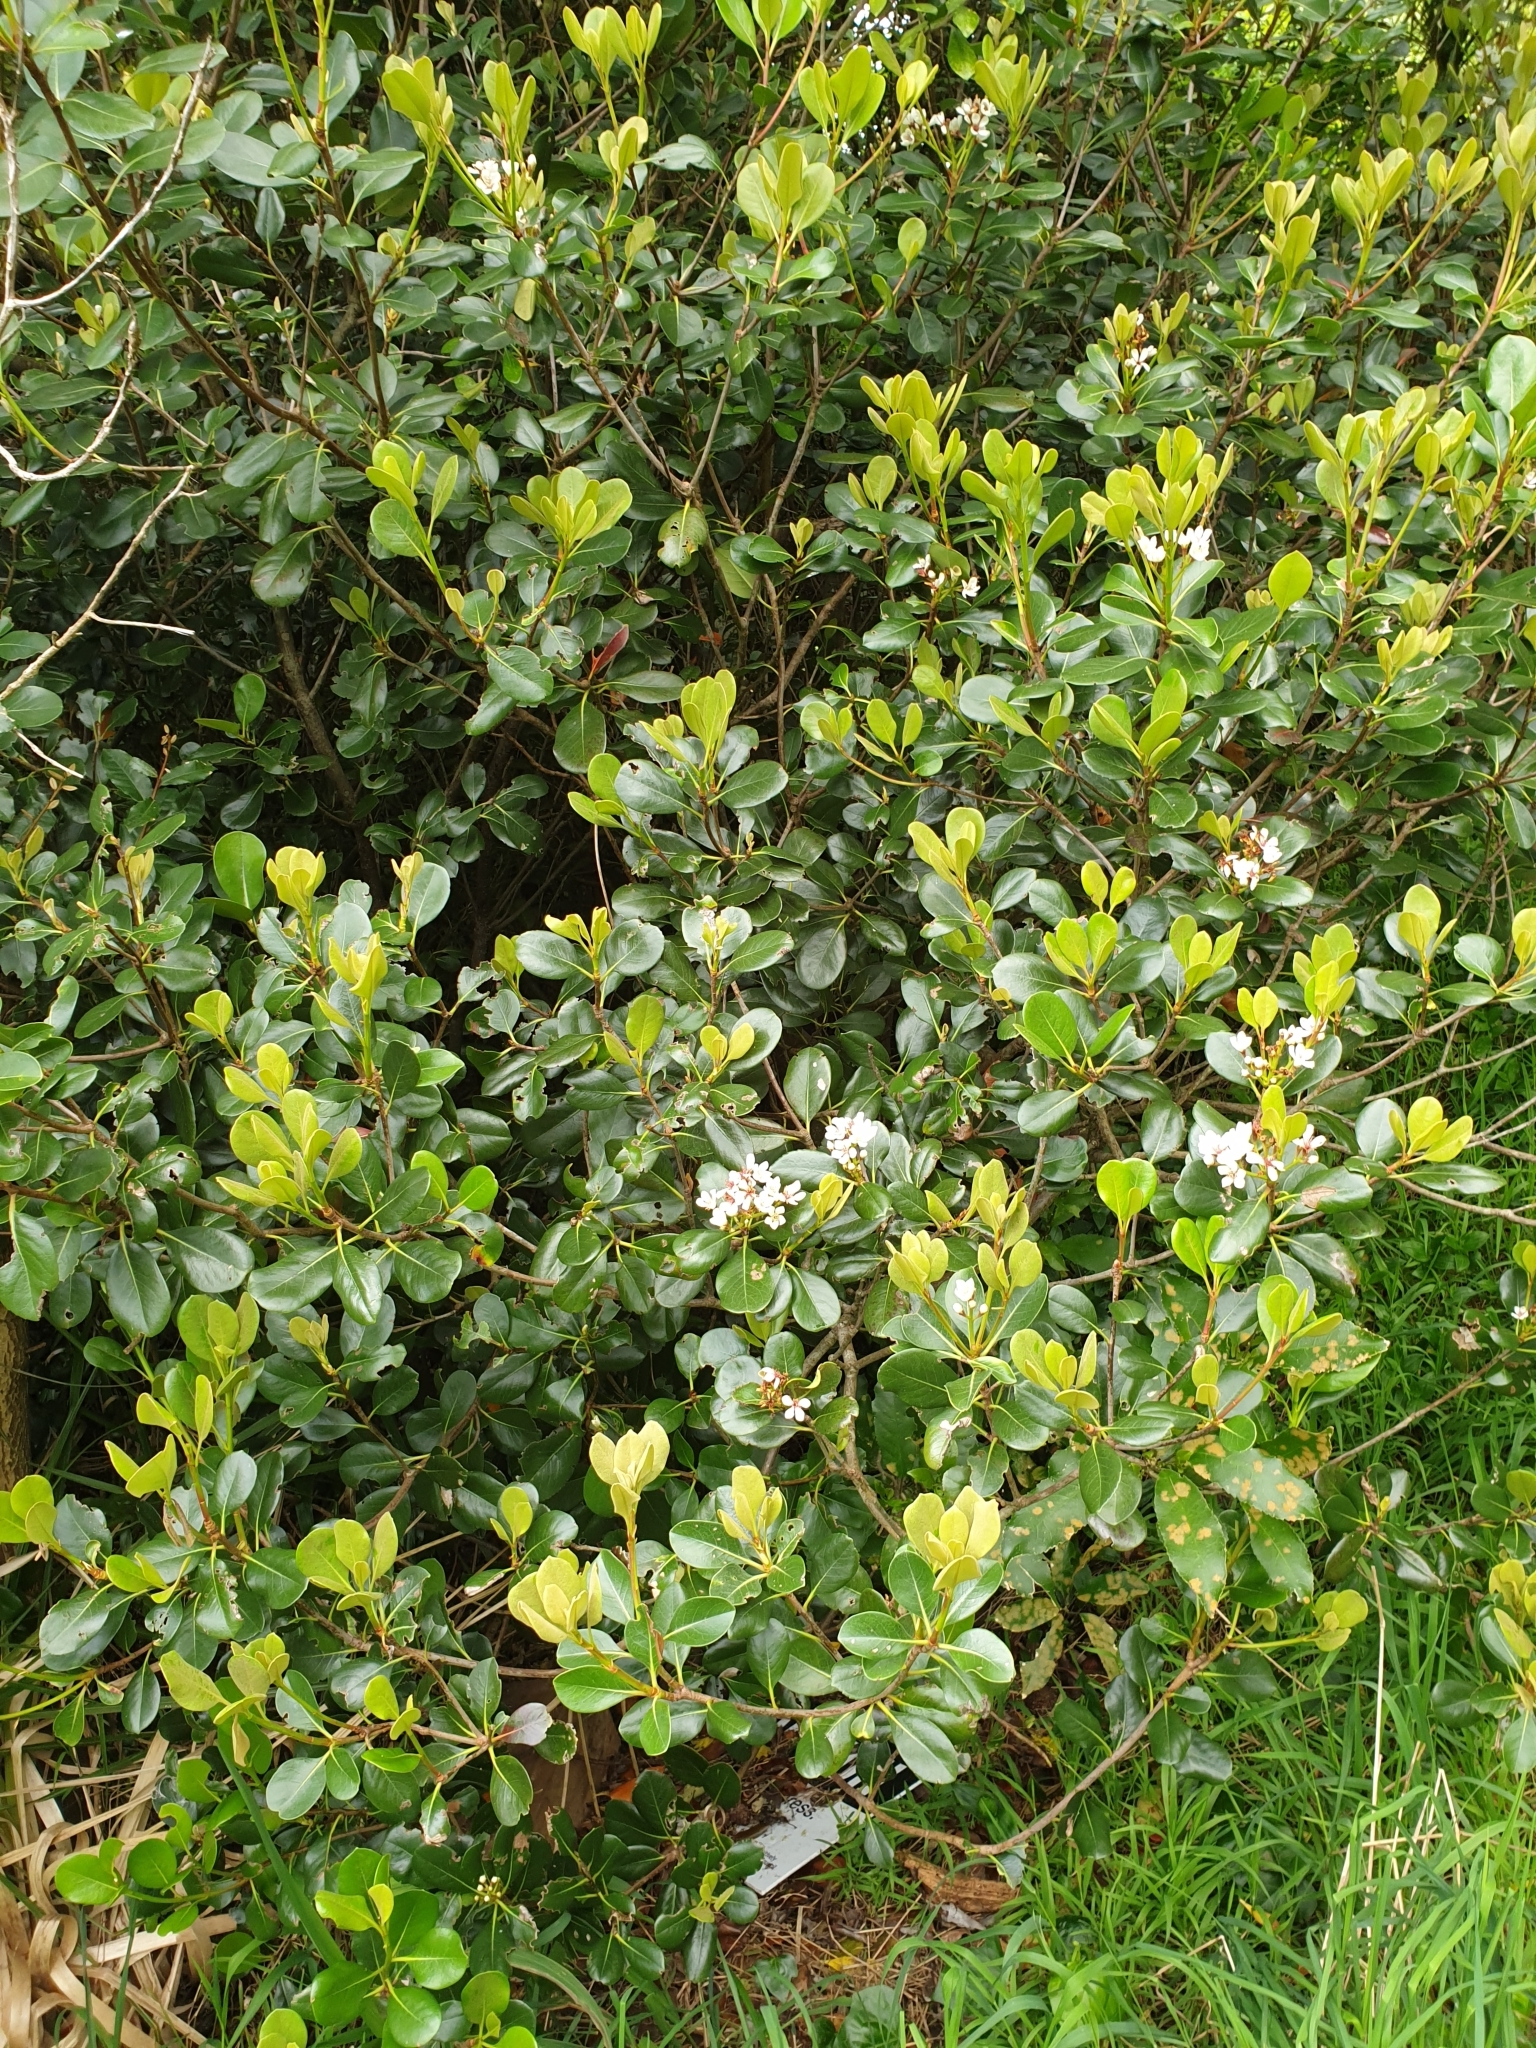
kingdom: Plantae
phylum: Tracheophyta
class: Magnoliopsida
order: Rosales
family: Rosaceae
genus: Rhaphiolepis
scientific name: Rhaphiolepis indica
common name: India-hawthorn
